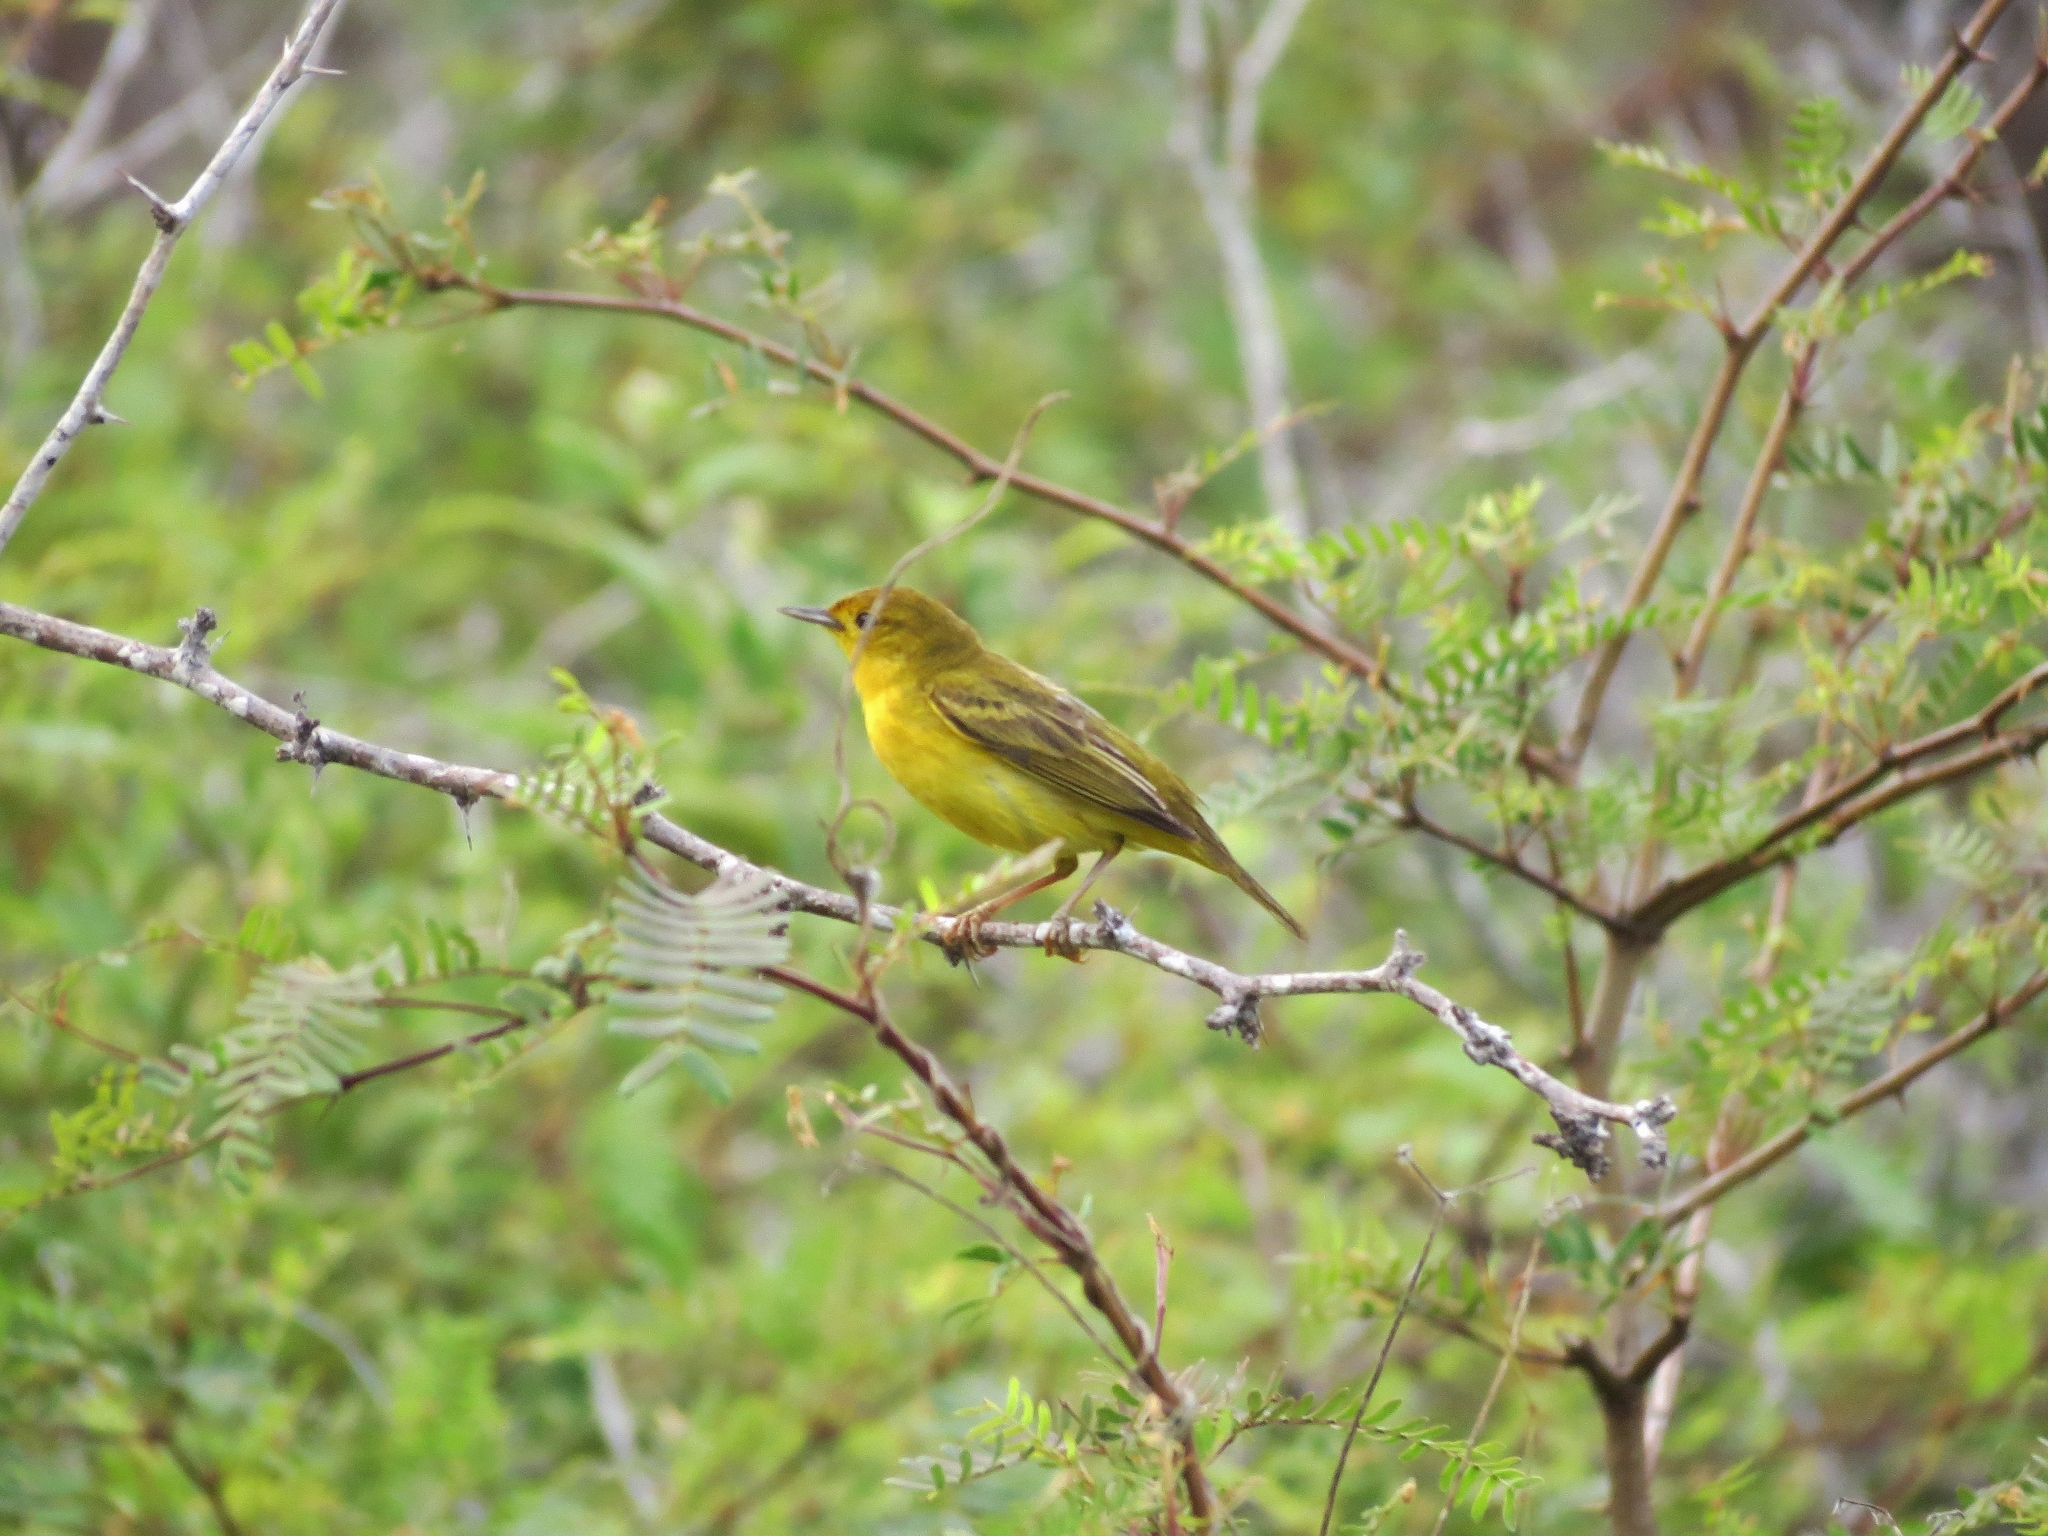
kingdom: Animalia
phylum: Chordata
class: Aves
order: Passeriformes
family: Parulidae
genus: Setophaga
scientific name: Setophaga petechia
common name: Yellow warbler
